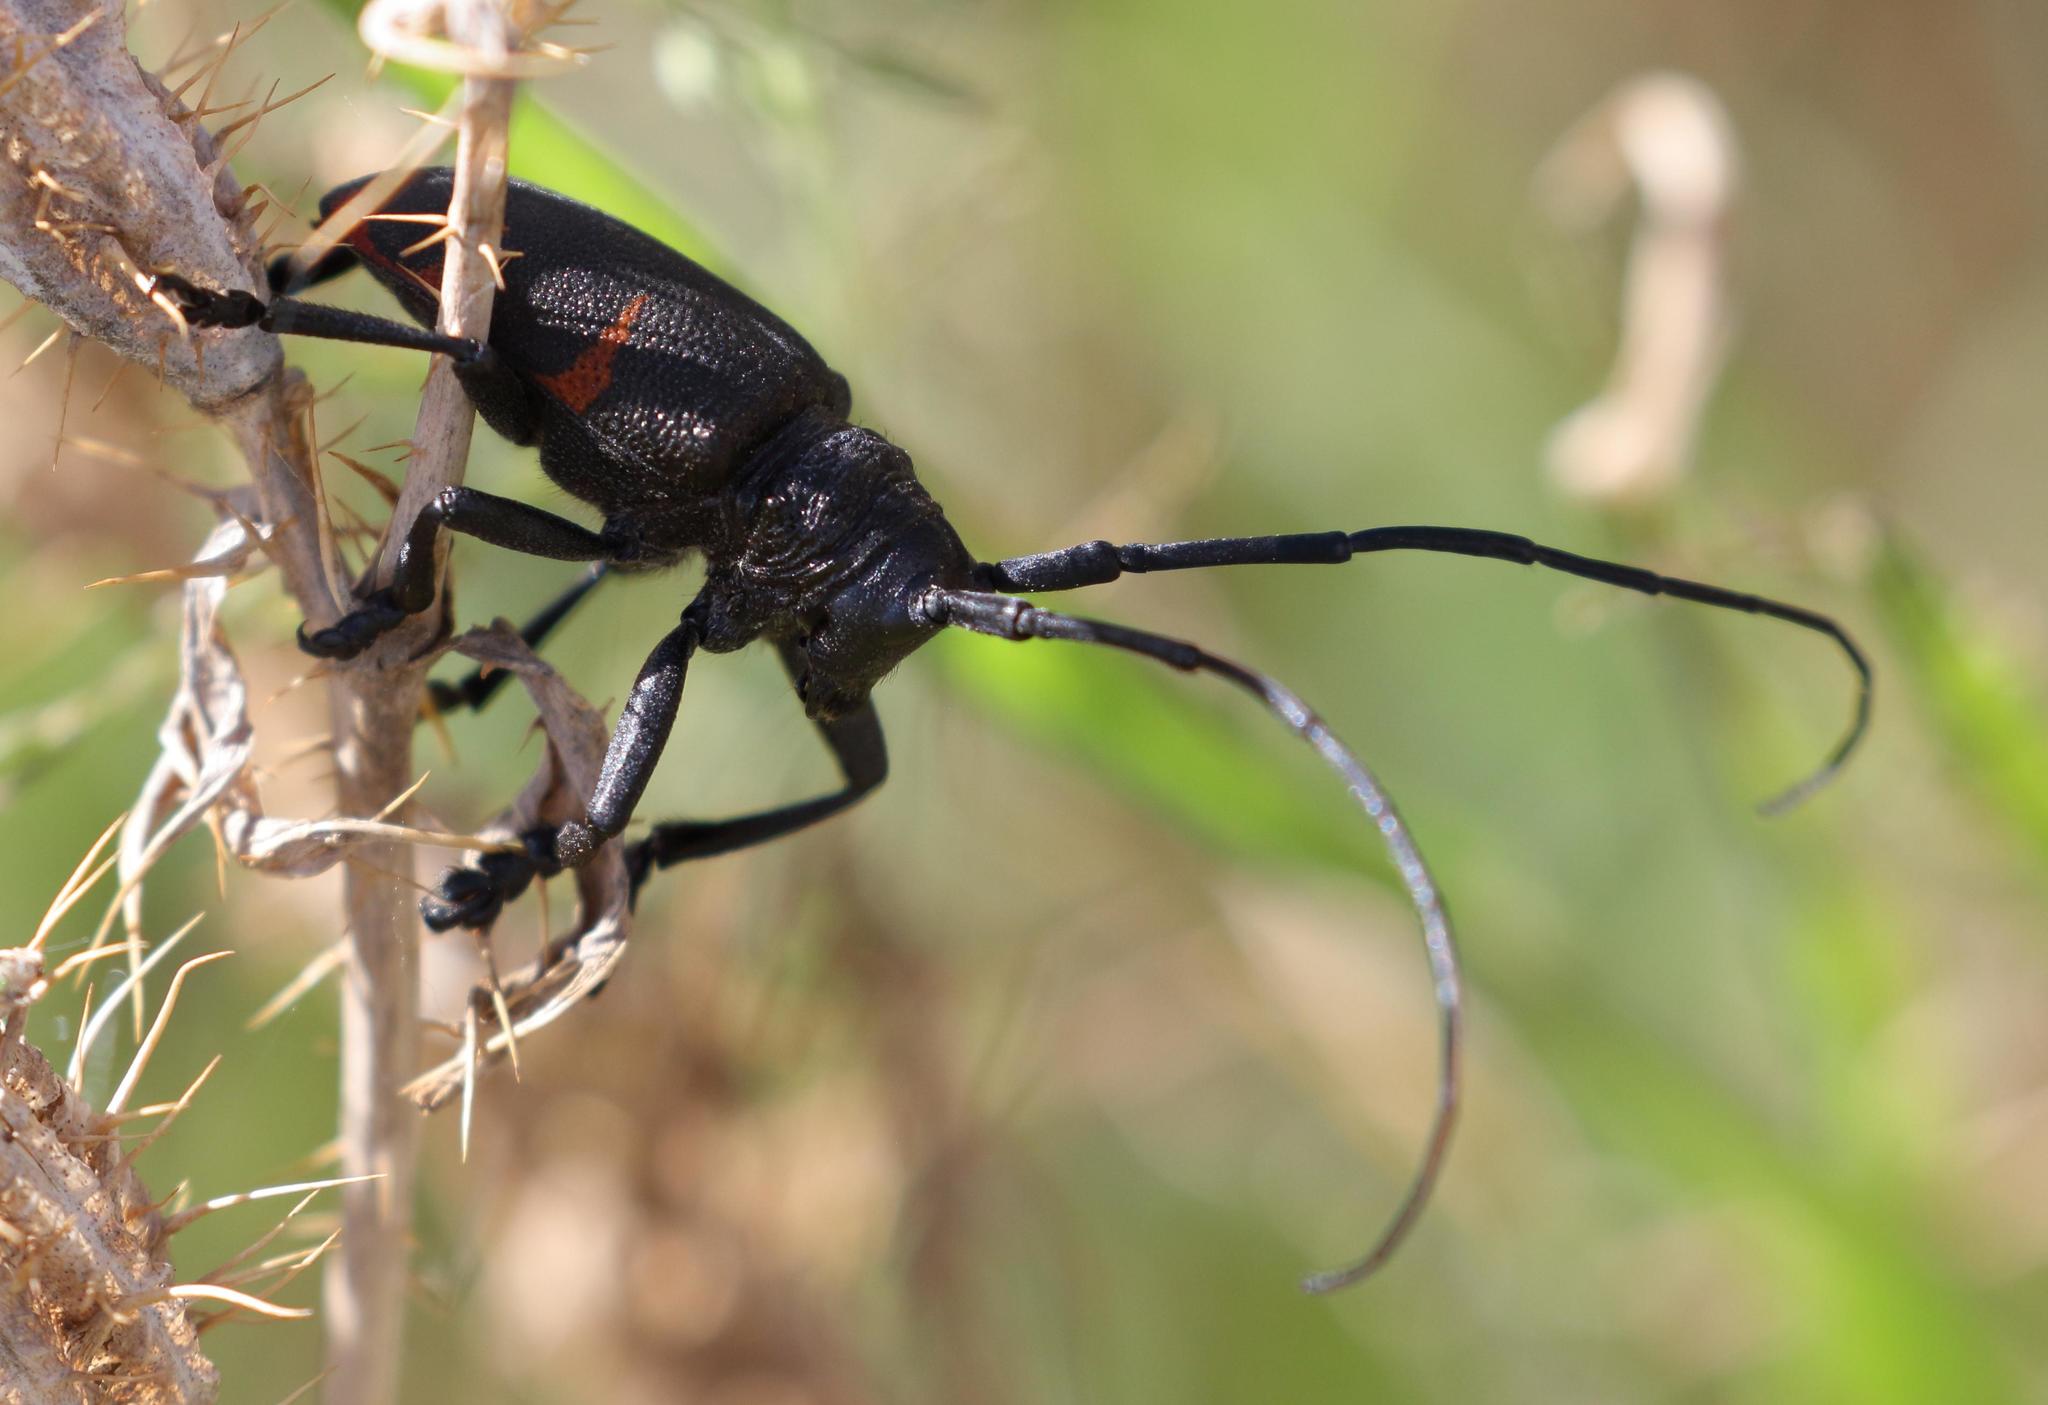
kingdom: Animalia
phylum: Arthropoda
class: Insecta
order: Coleoptera
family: Cerambycidae
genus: Pycnopsis
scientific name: Pycnopsis brachyptera
